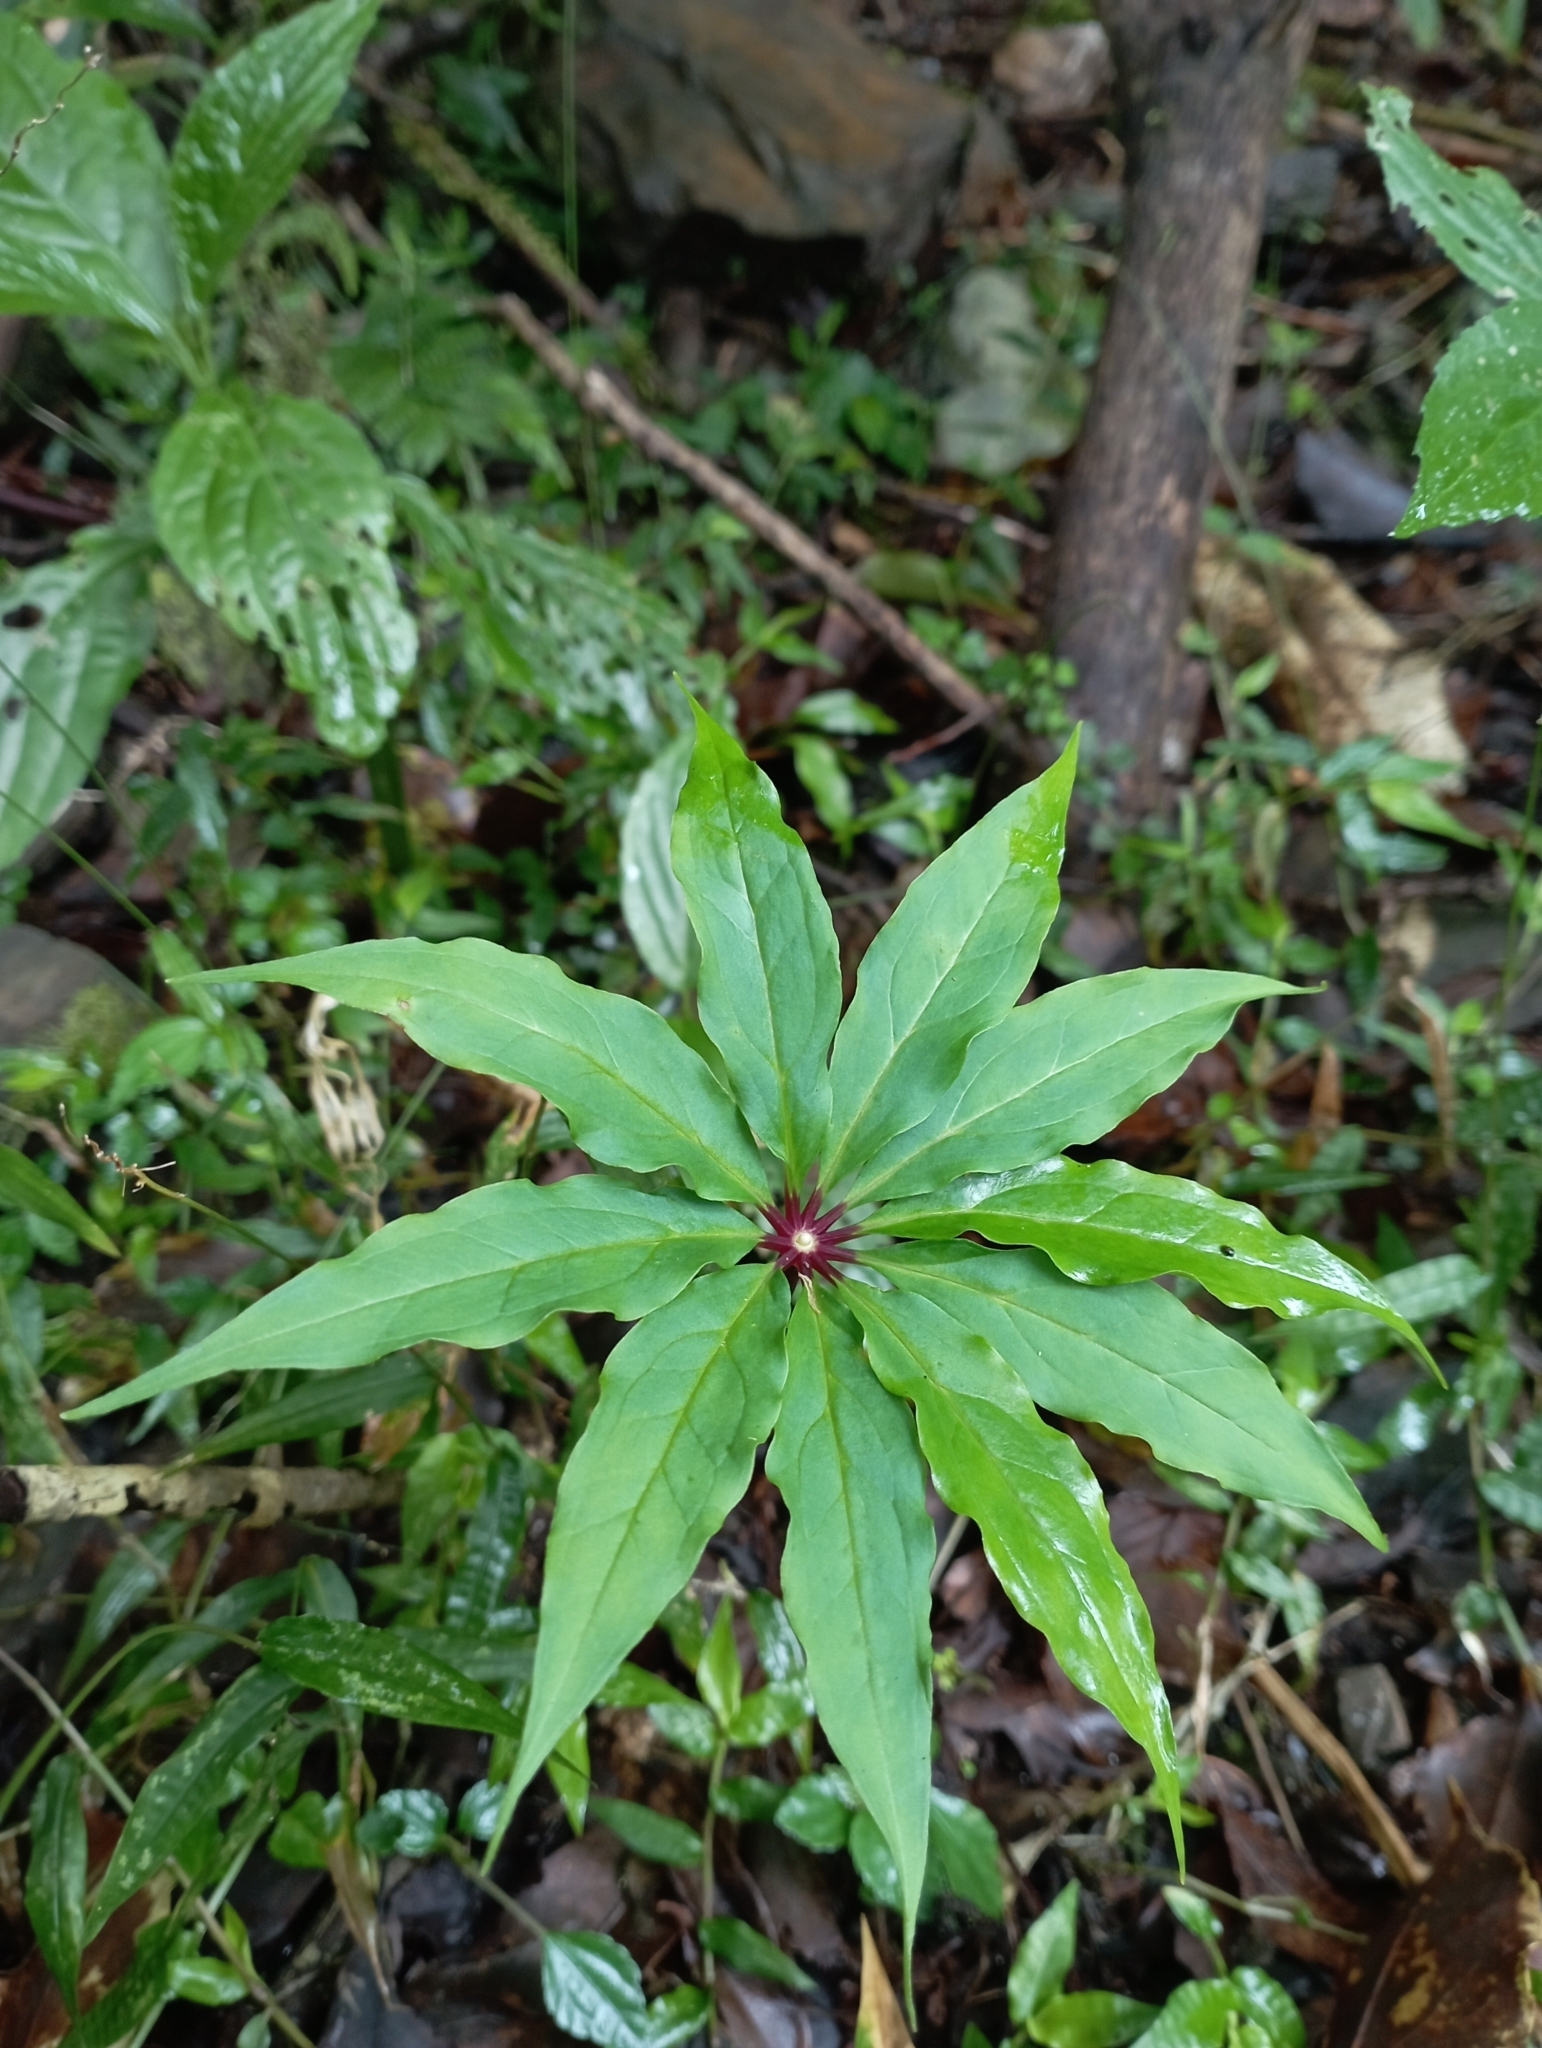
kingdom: Plantae
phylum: Tracheophyta
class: Liliopsida
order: Liliales
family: Melanthiaceae
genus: Paris
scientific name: Paris polyphylla
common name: Love apple
